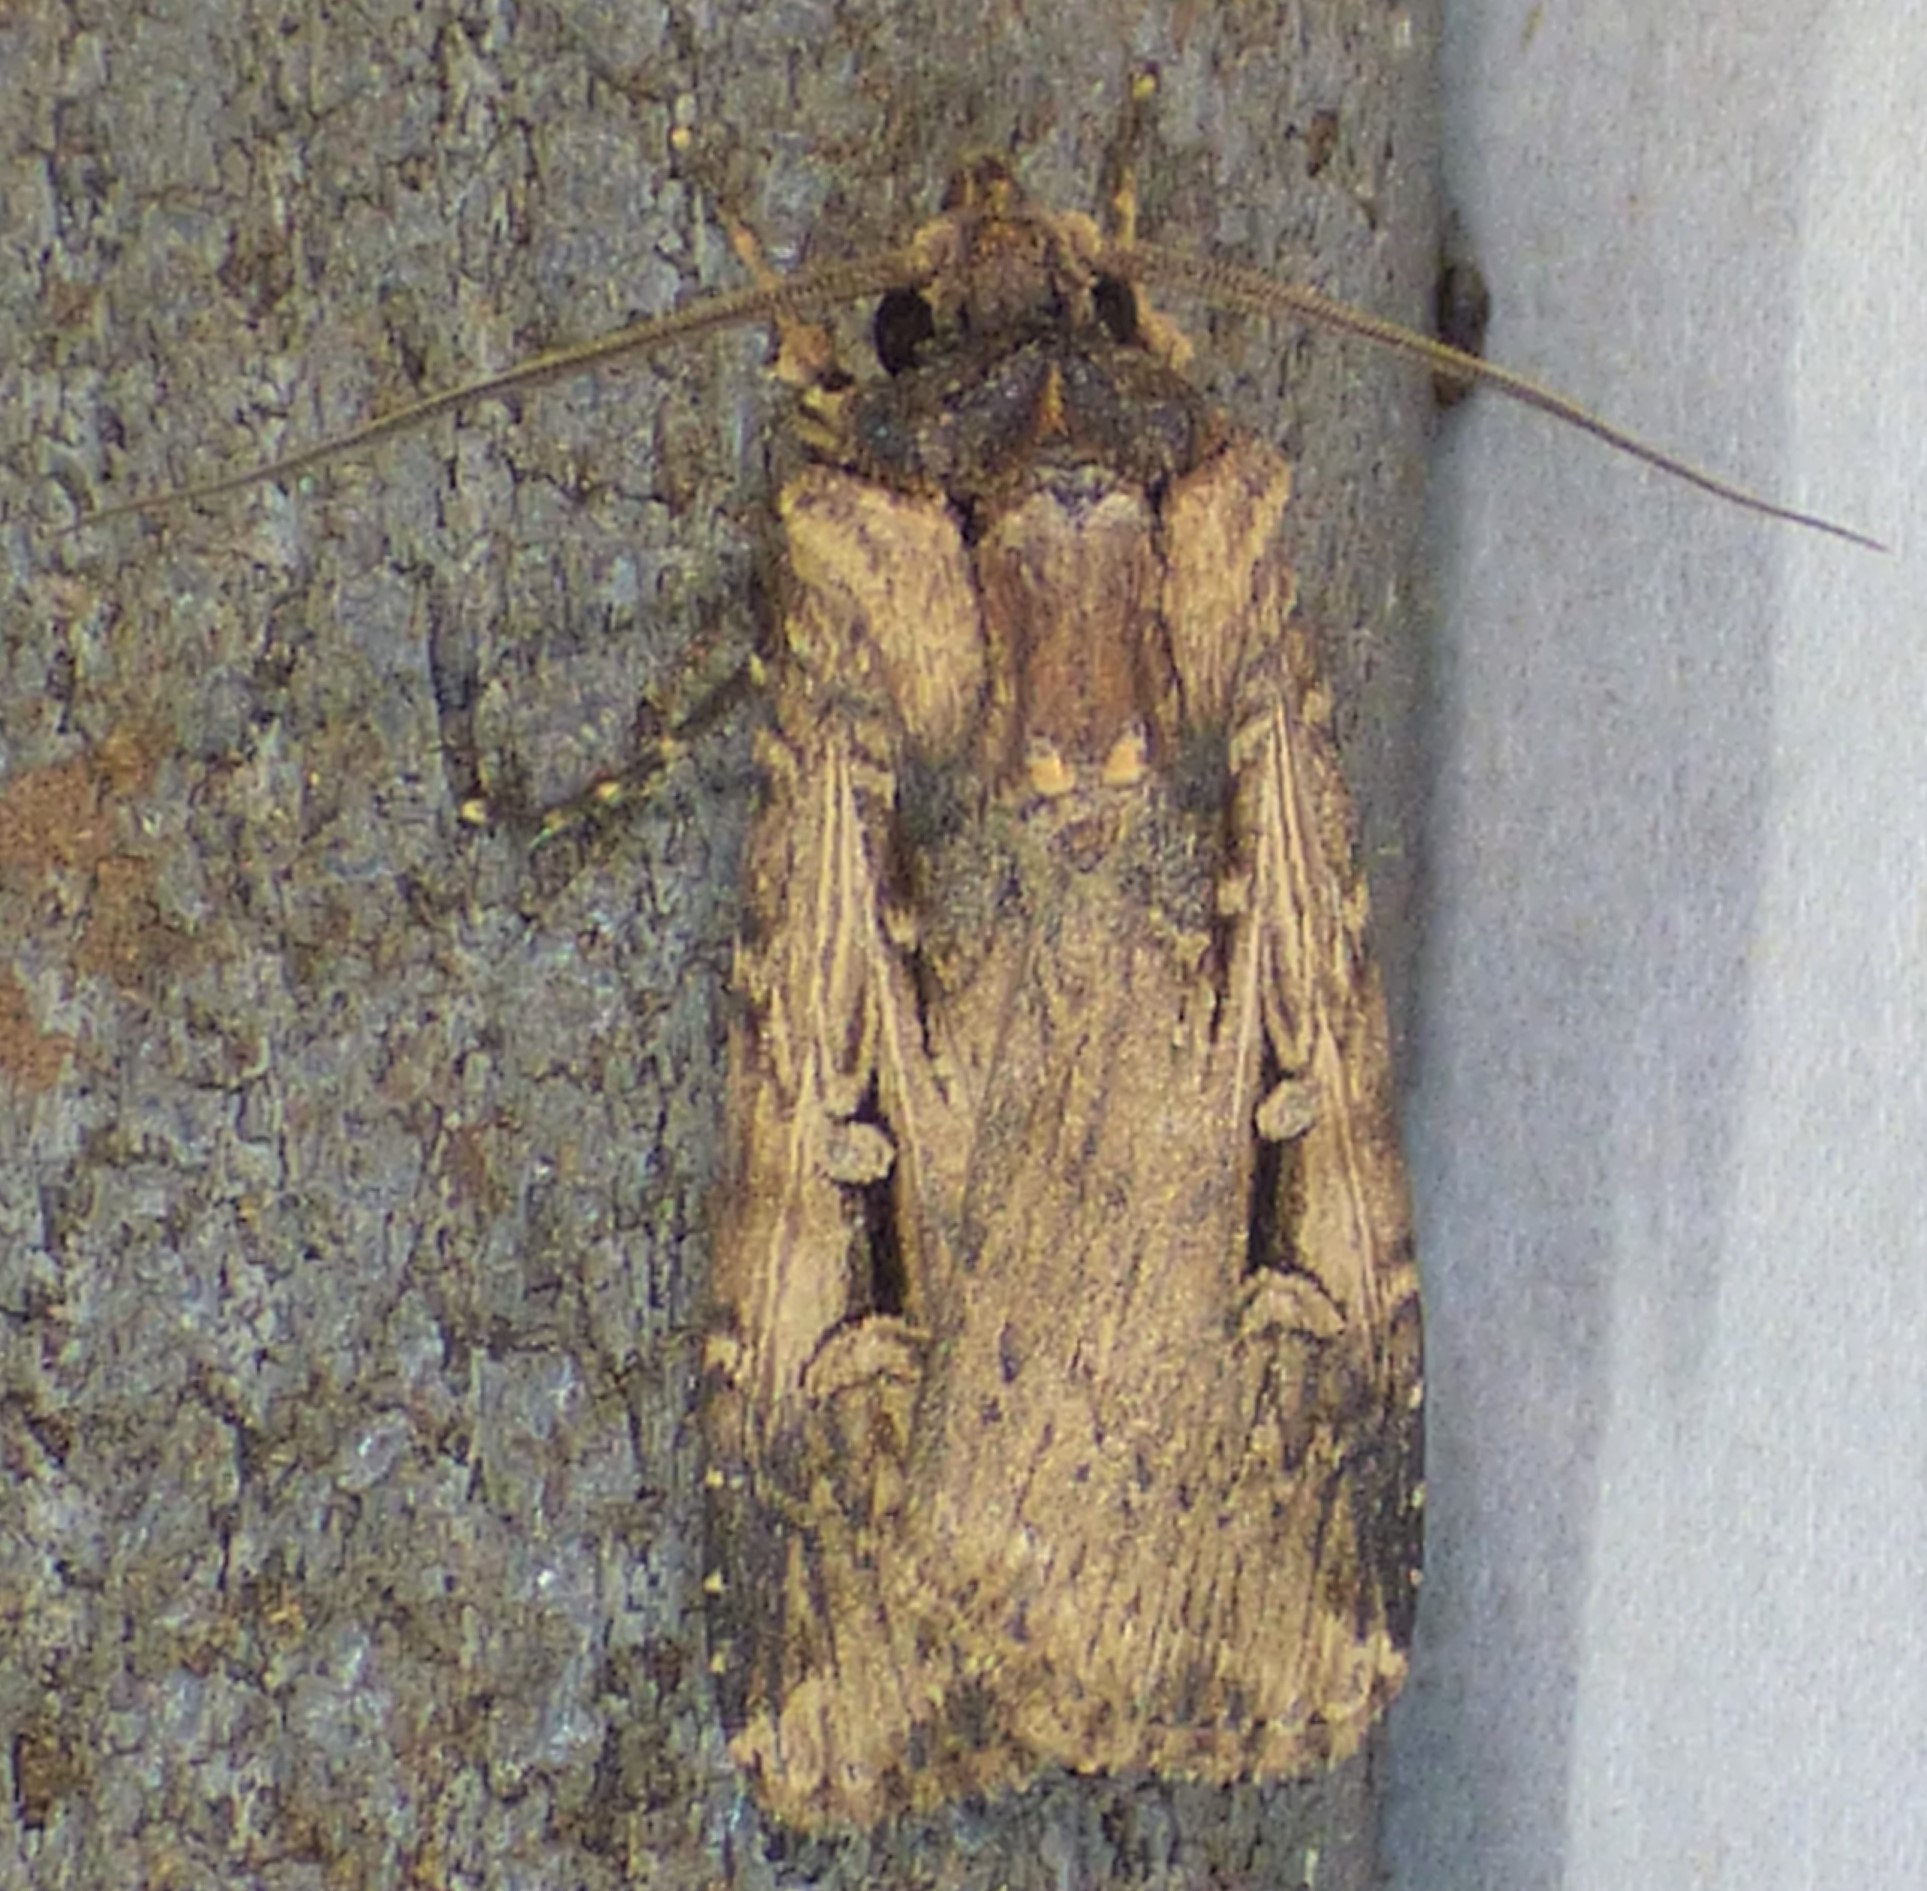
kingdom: Animalia
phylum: Arthropoda
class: Insecta
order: Lepidoptera
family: Noctuidae
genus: Feltia
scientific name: Feltia subterranea
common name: Granulate cutworm
